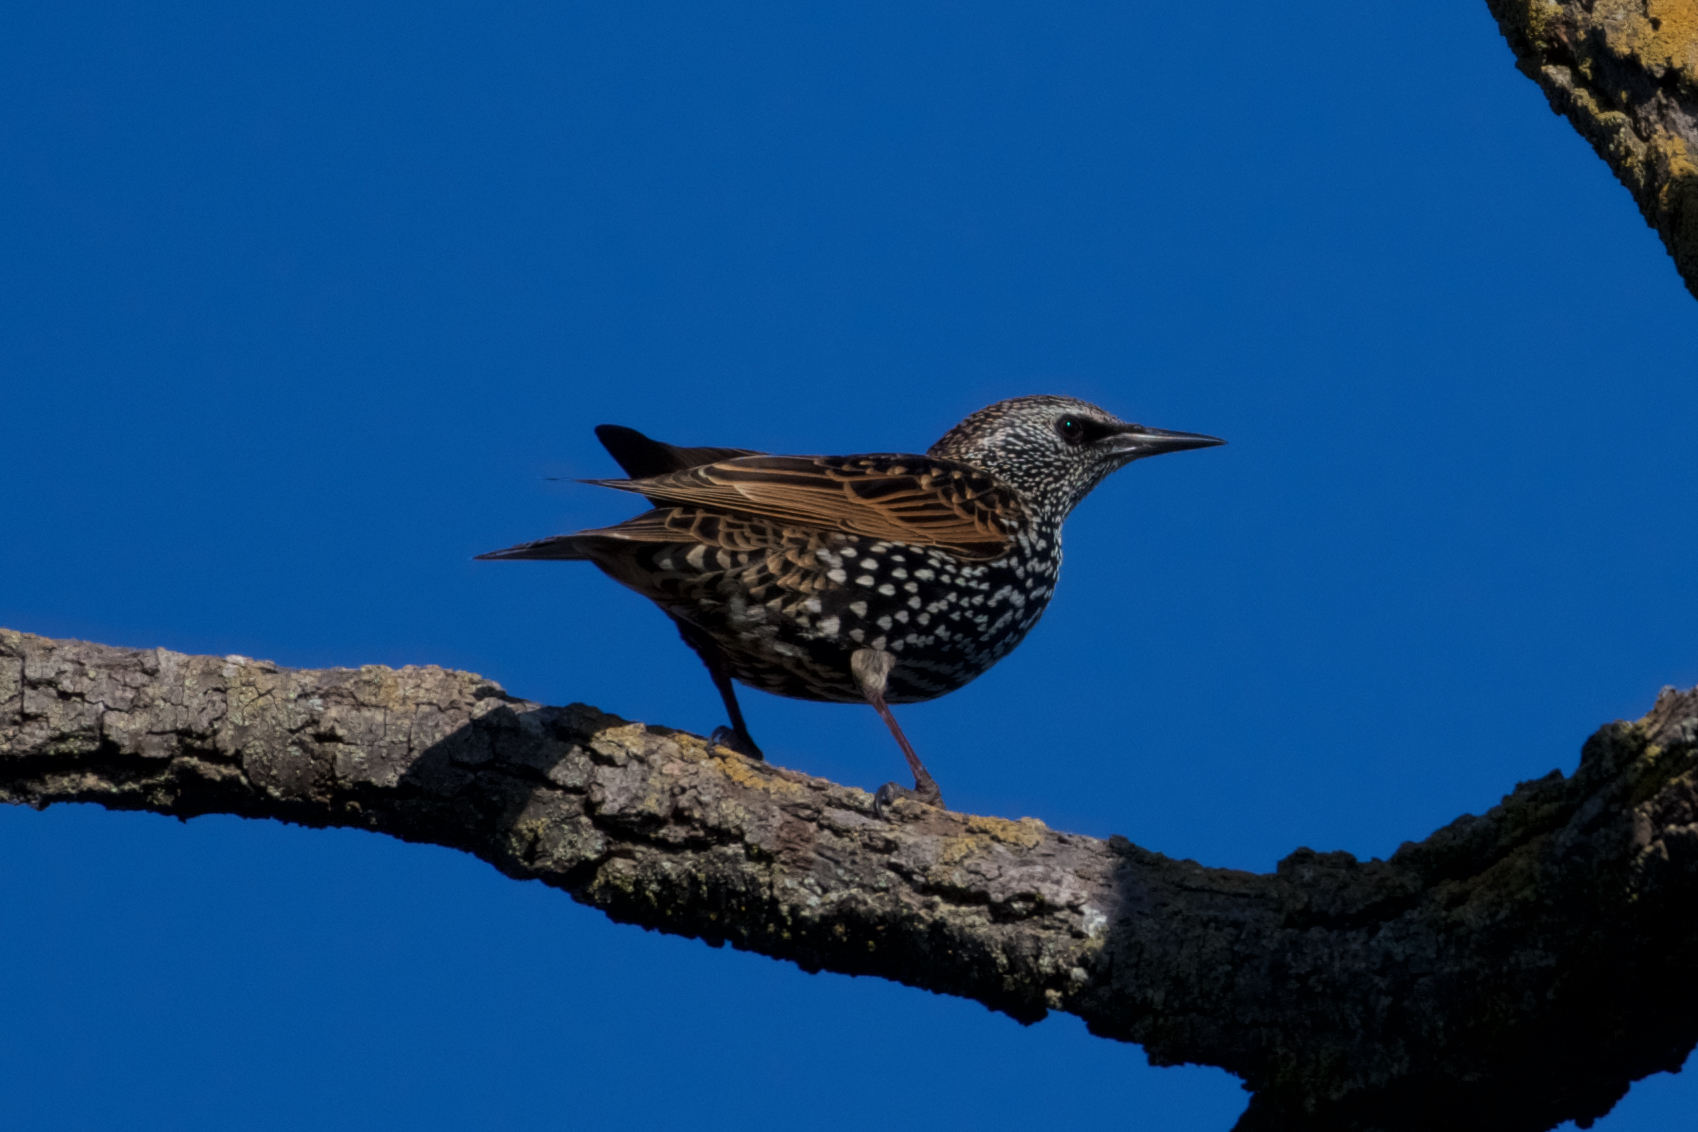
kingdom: Animalia
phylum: Chordata
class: Aves
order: Passeriformes
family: Sturnidae
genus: Sturnus
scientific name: Sturnus vulgaris
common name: Common starling
